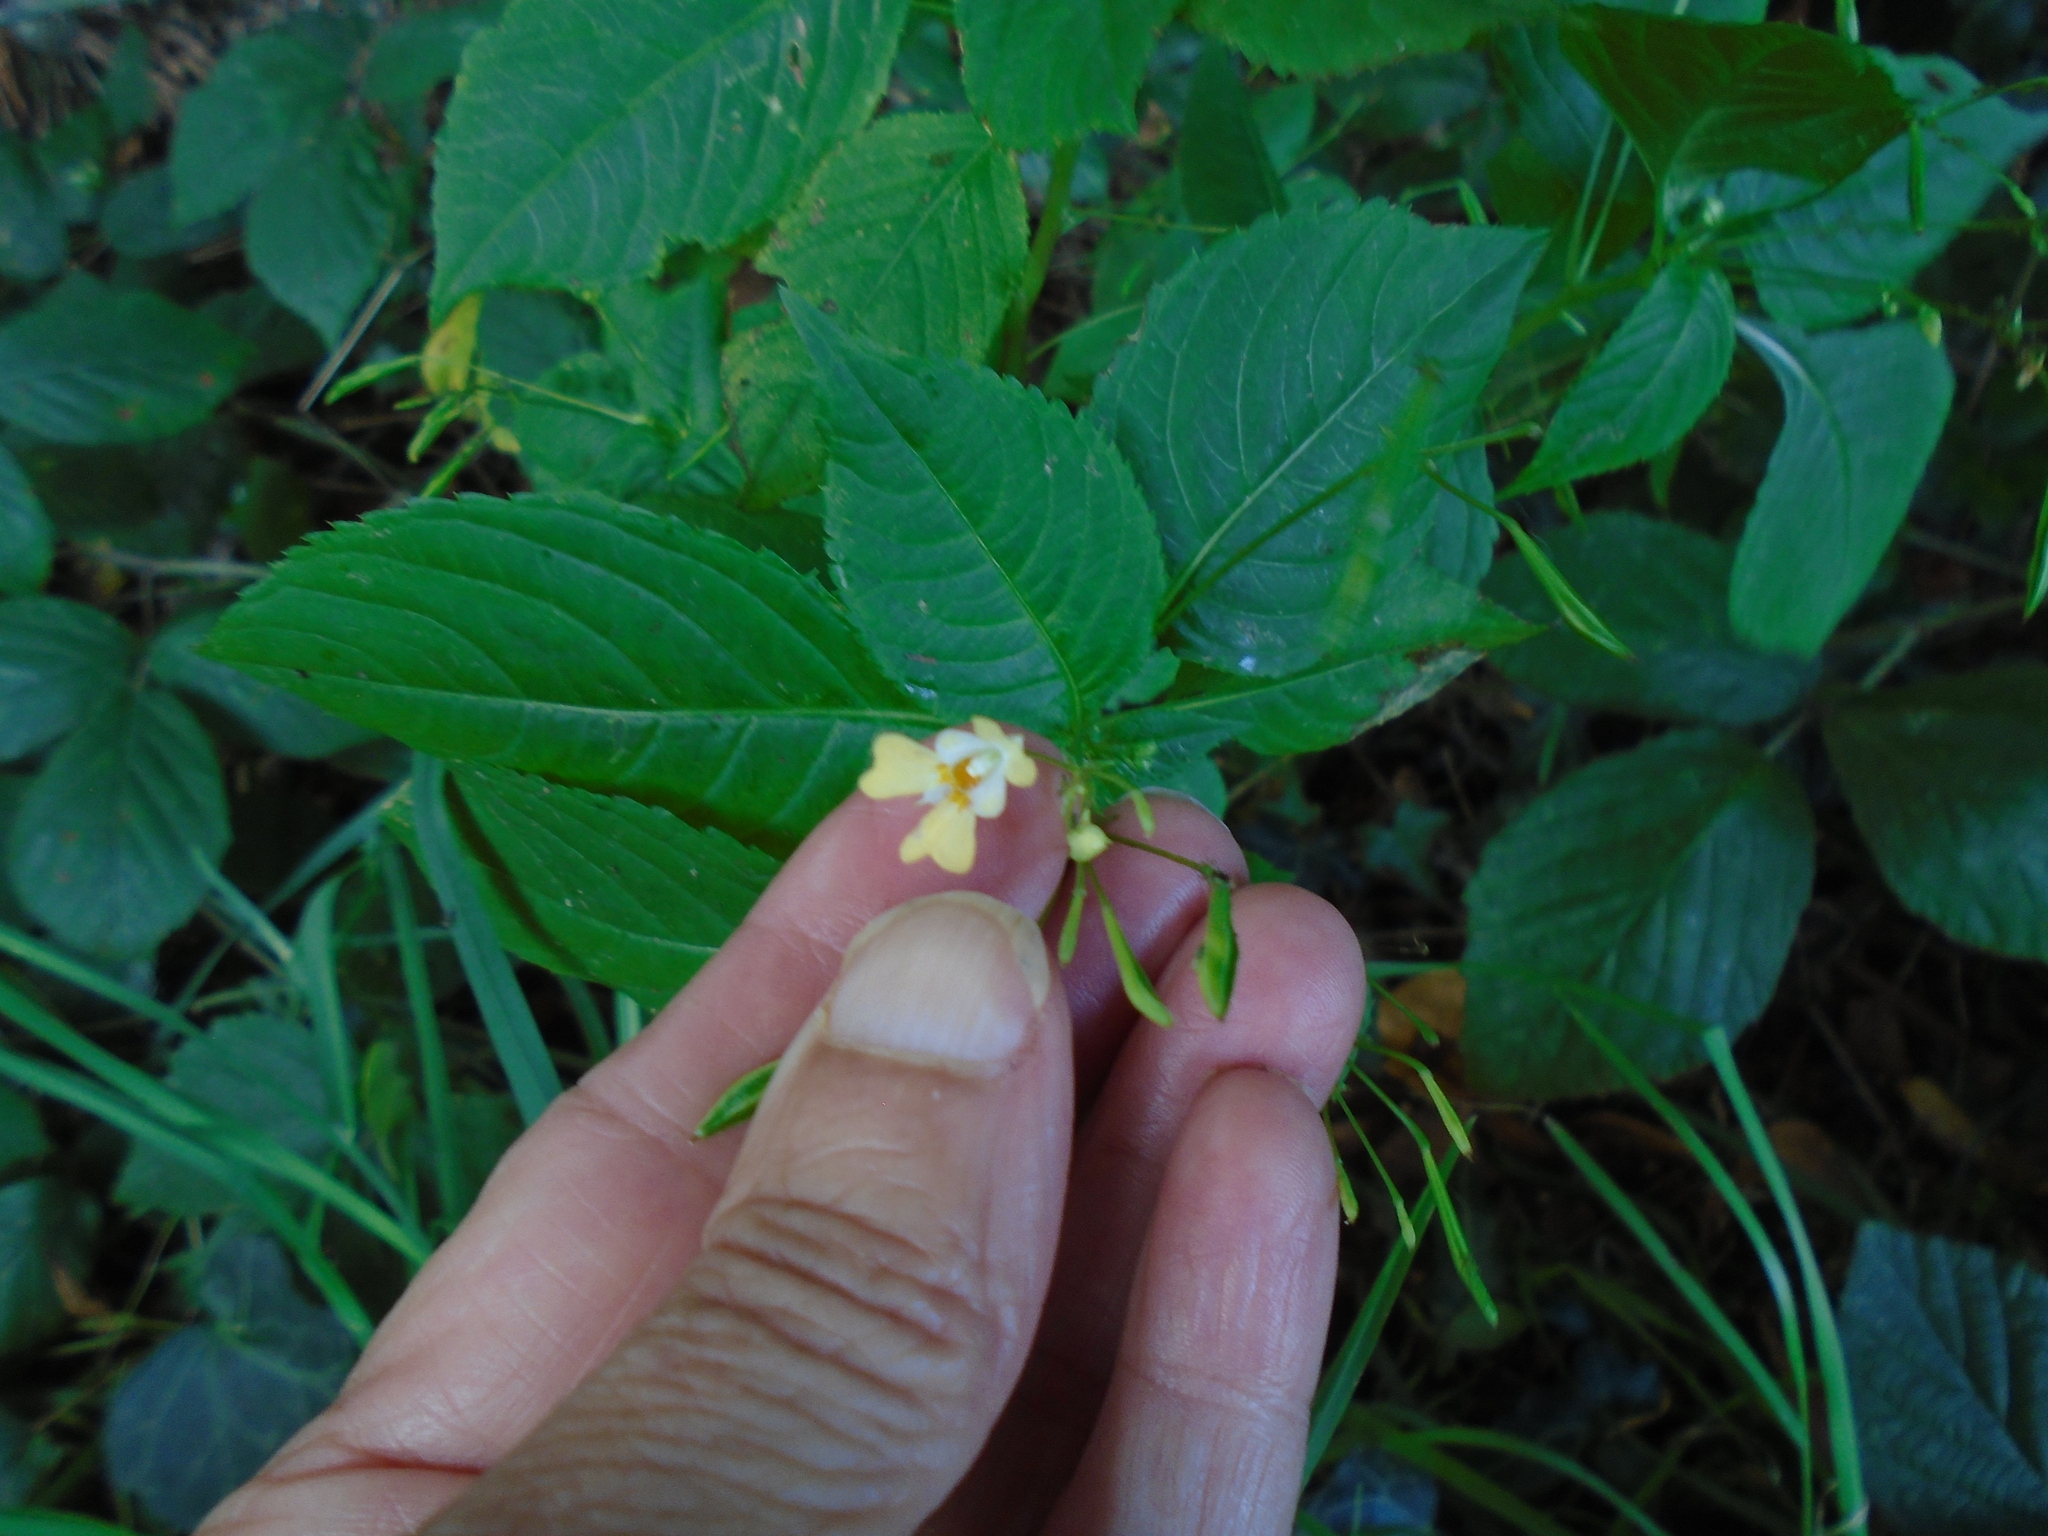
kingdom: Plantae
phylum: Tracheophyta
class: Magnoliopsida
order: Ericales
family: Balsaminaceae
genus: Impatiens
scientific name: Impatiens parviflora
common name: Small balsam
